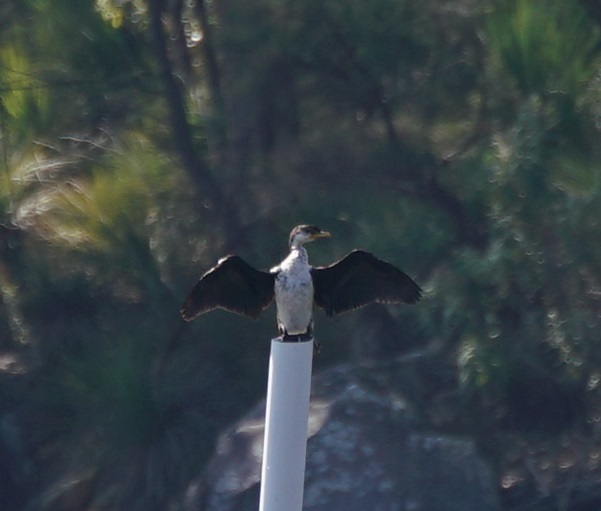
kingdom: Animalia
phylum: Chordata
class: Aves
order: Suliformes
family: Phalacrocoracidae
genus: Microcarbo
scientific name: Microcarbo melanoleucos
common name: Little pied cormorant
